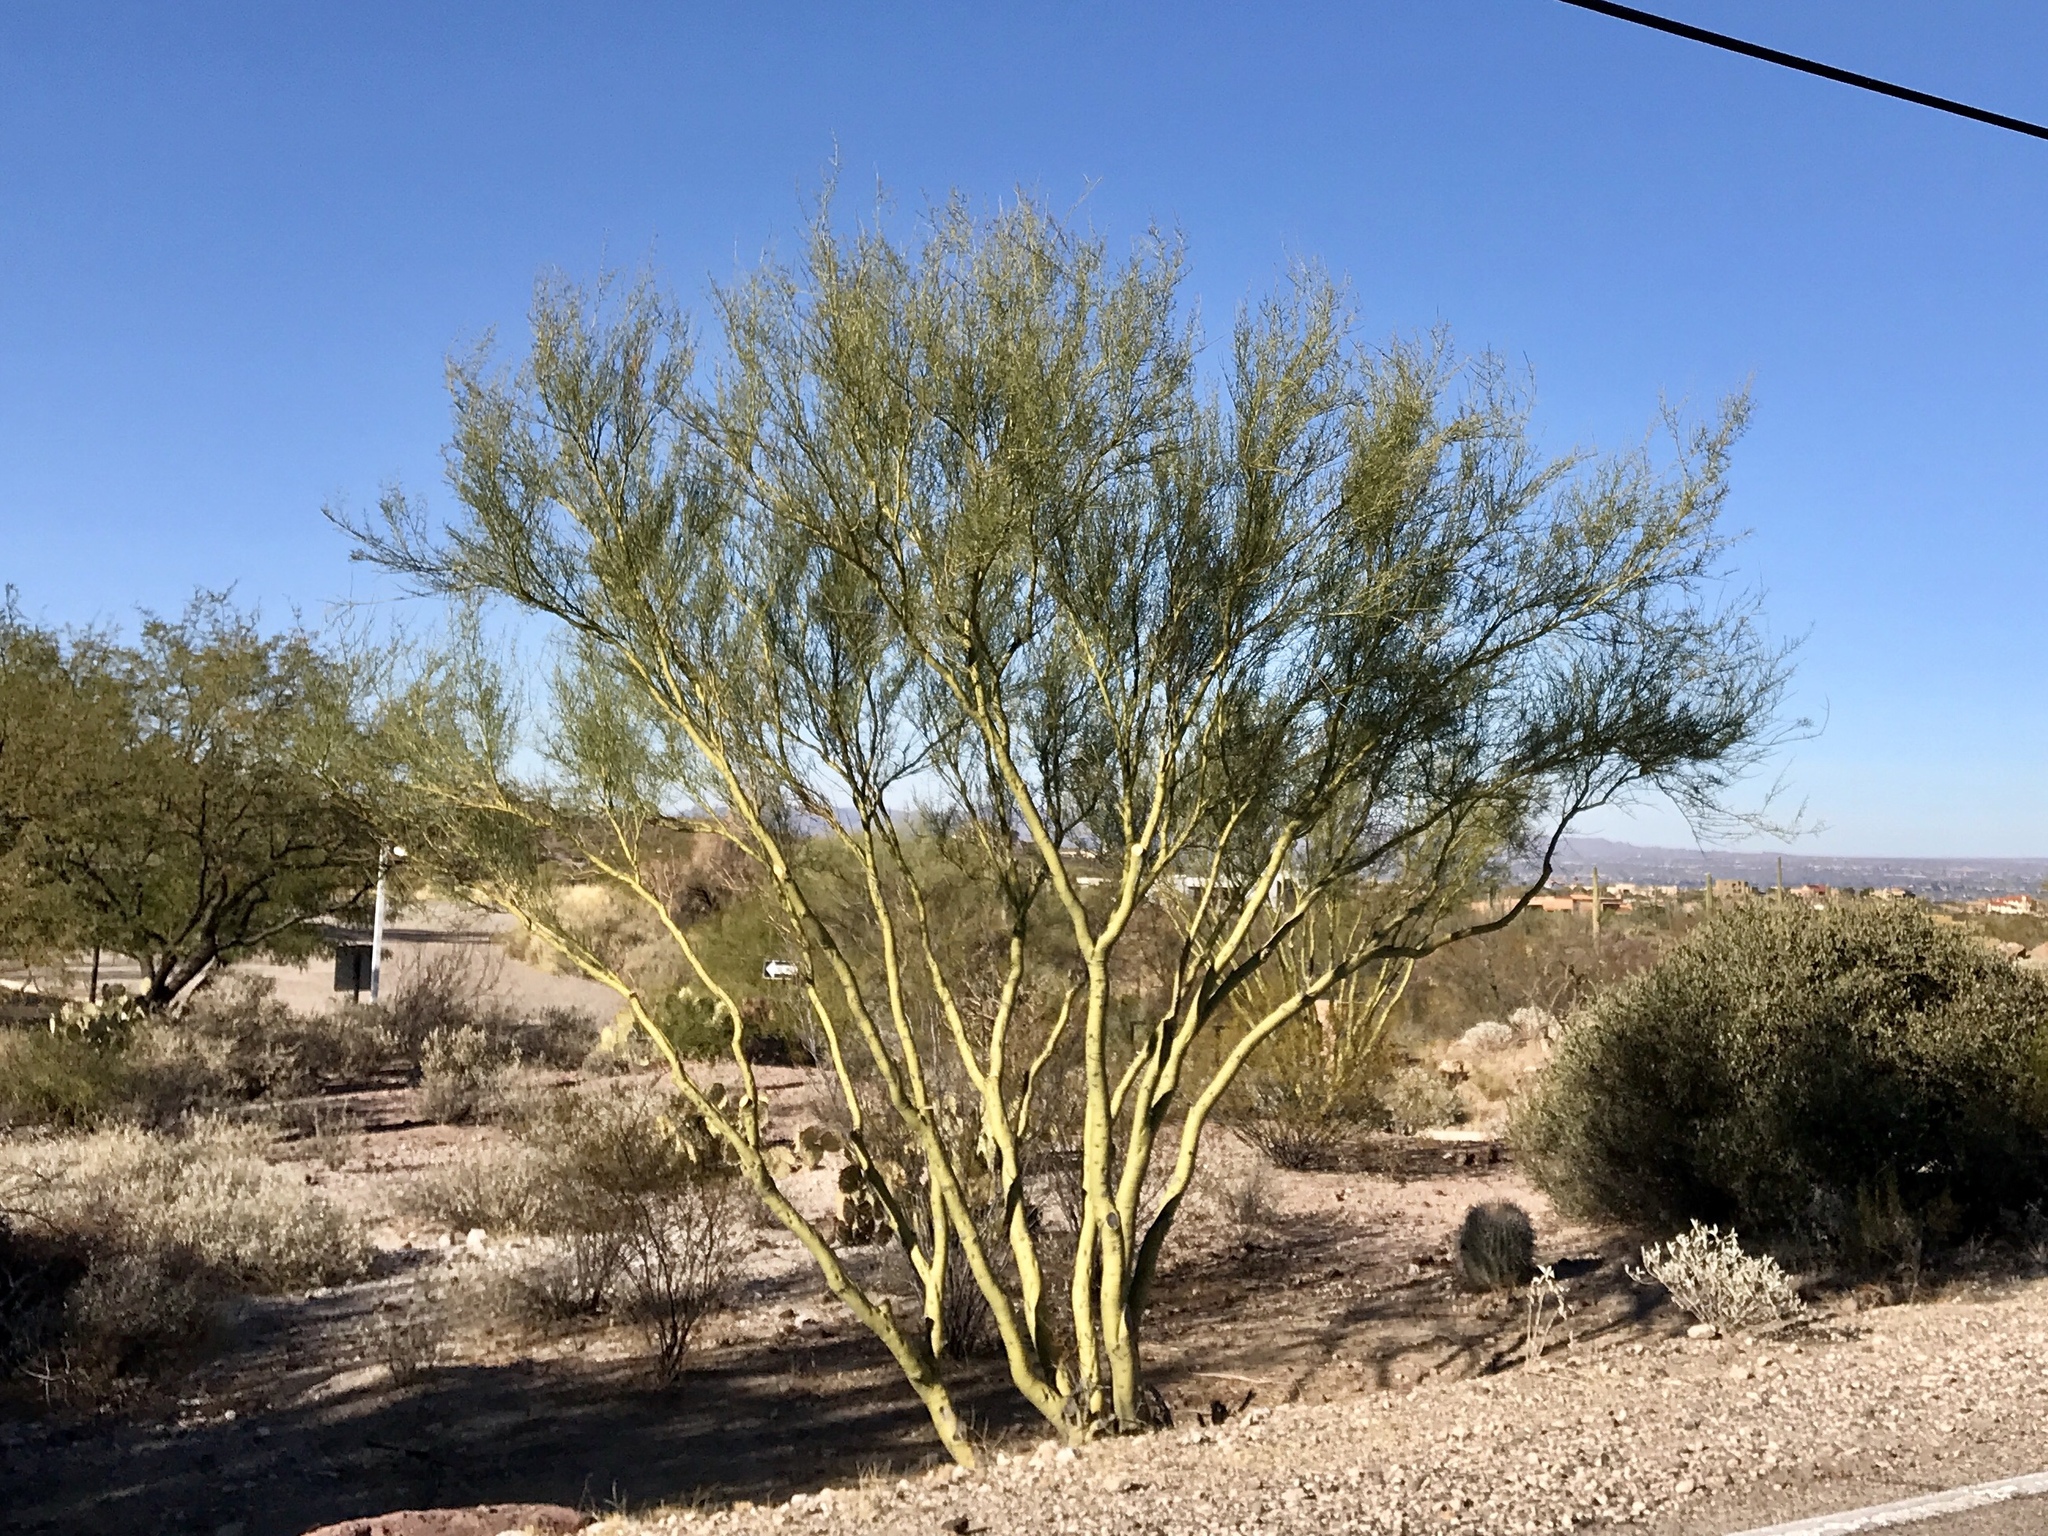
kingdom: Plantae
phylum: Tracheophyta
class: Magnoliopsida
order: Fabales
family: Fabaceae
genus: Parkinsonia
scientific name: Parkinsonia microphylla
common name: Yellow paloverde
